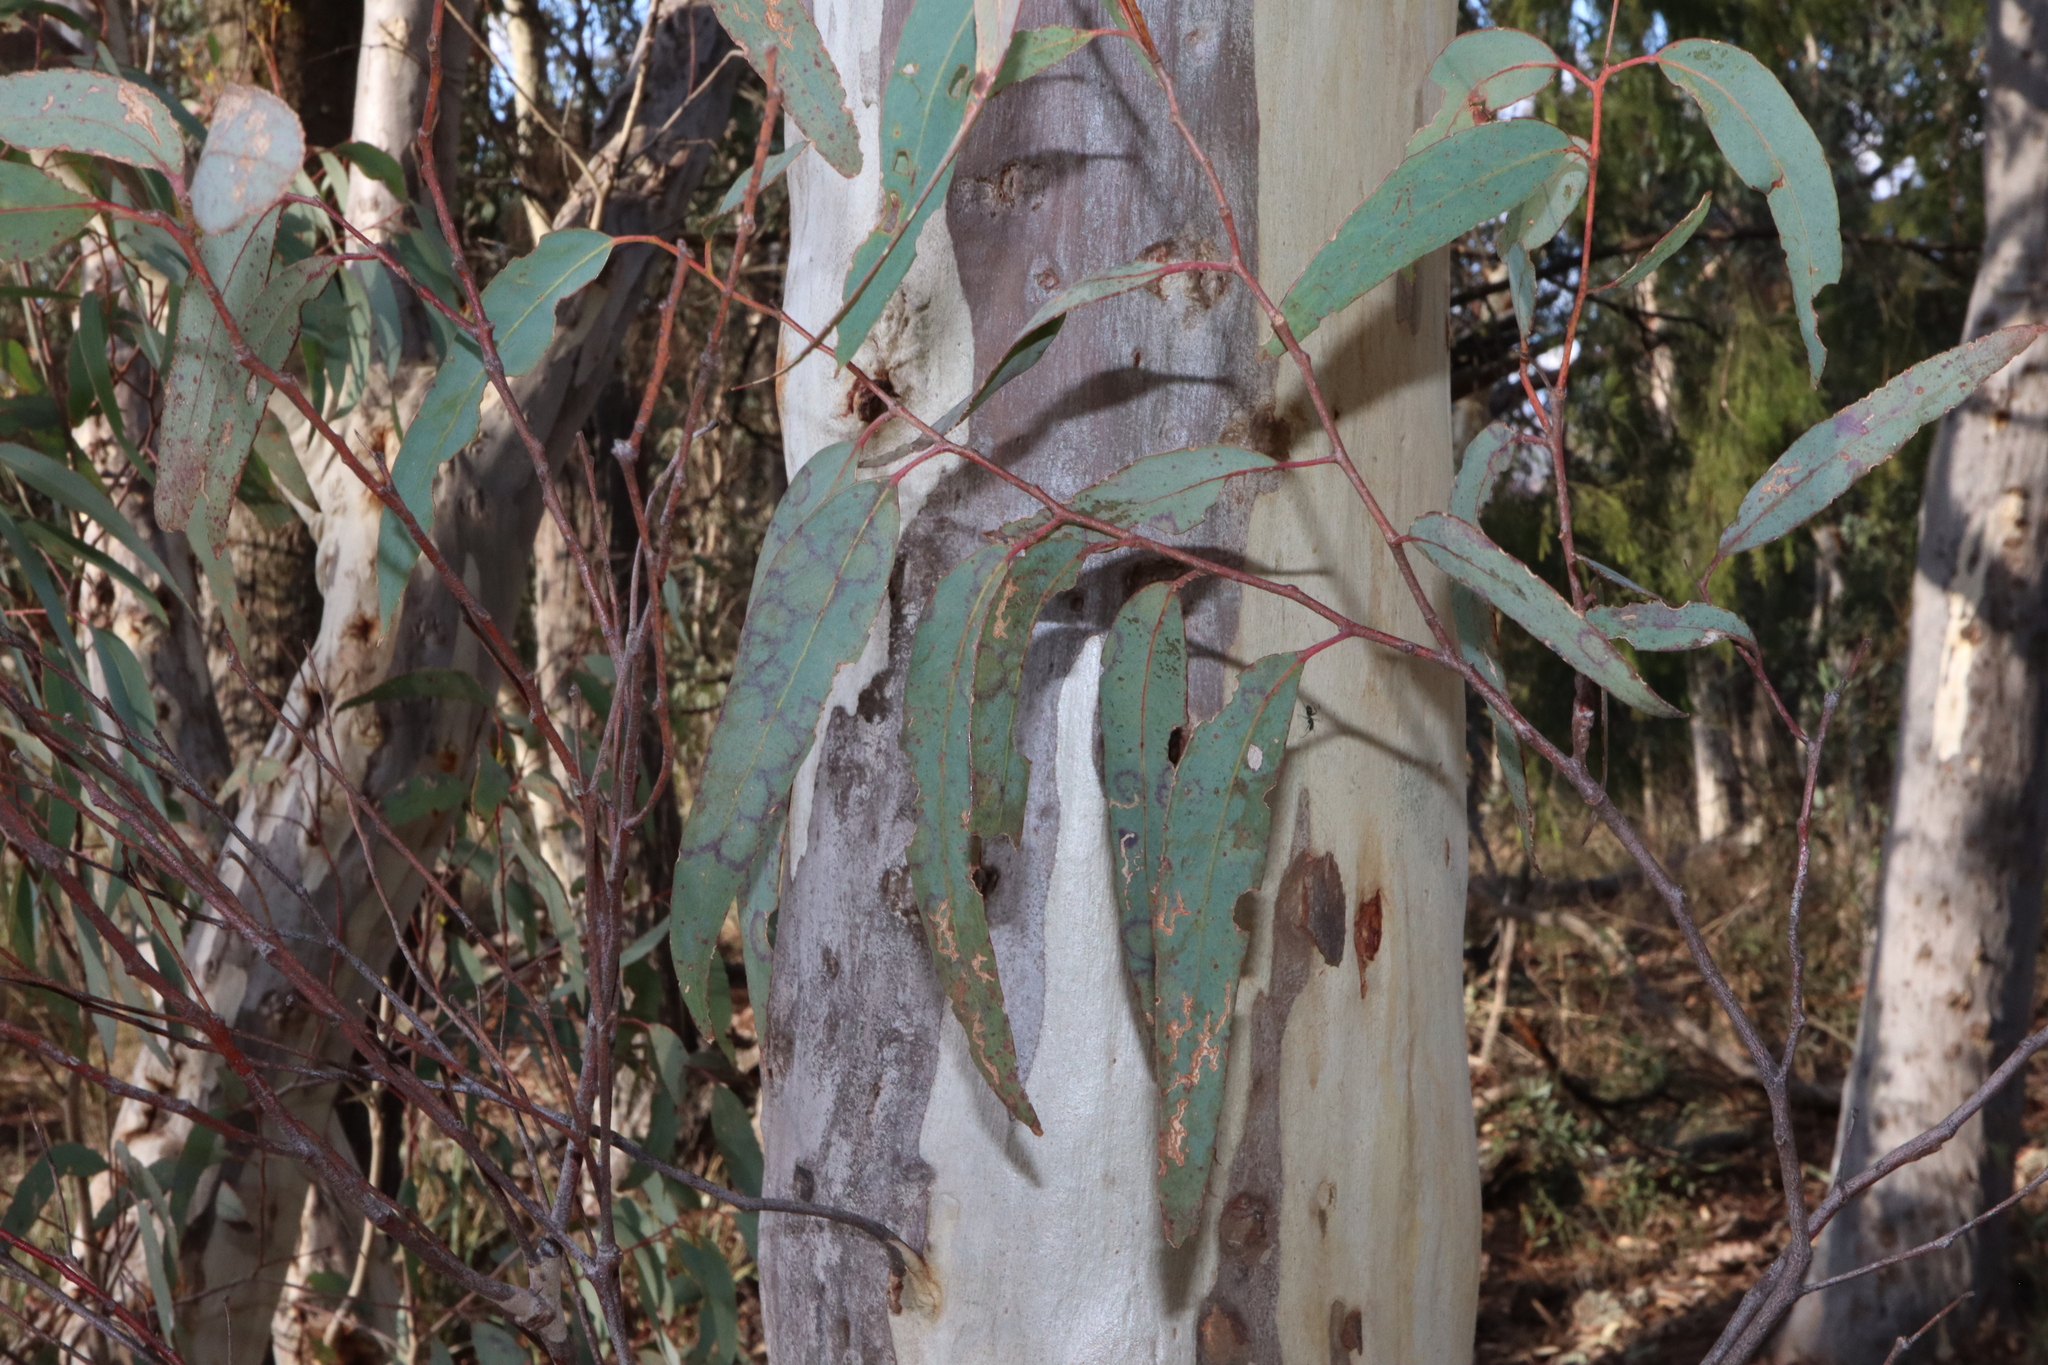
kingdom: Plantae
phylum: Tracheophyta
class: Magnoliopsida
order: Myrtales
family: Myrtaceae
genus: Eucalyptus
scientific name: Eucalyptus mannifera
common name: Manna gum
